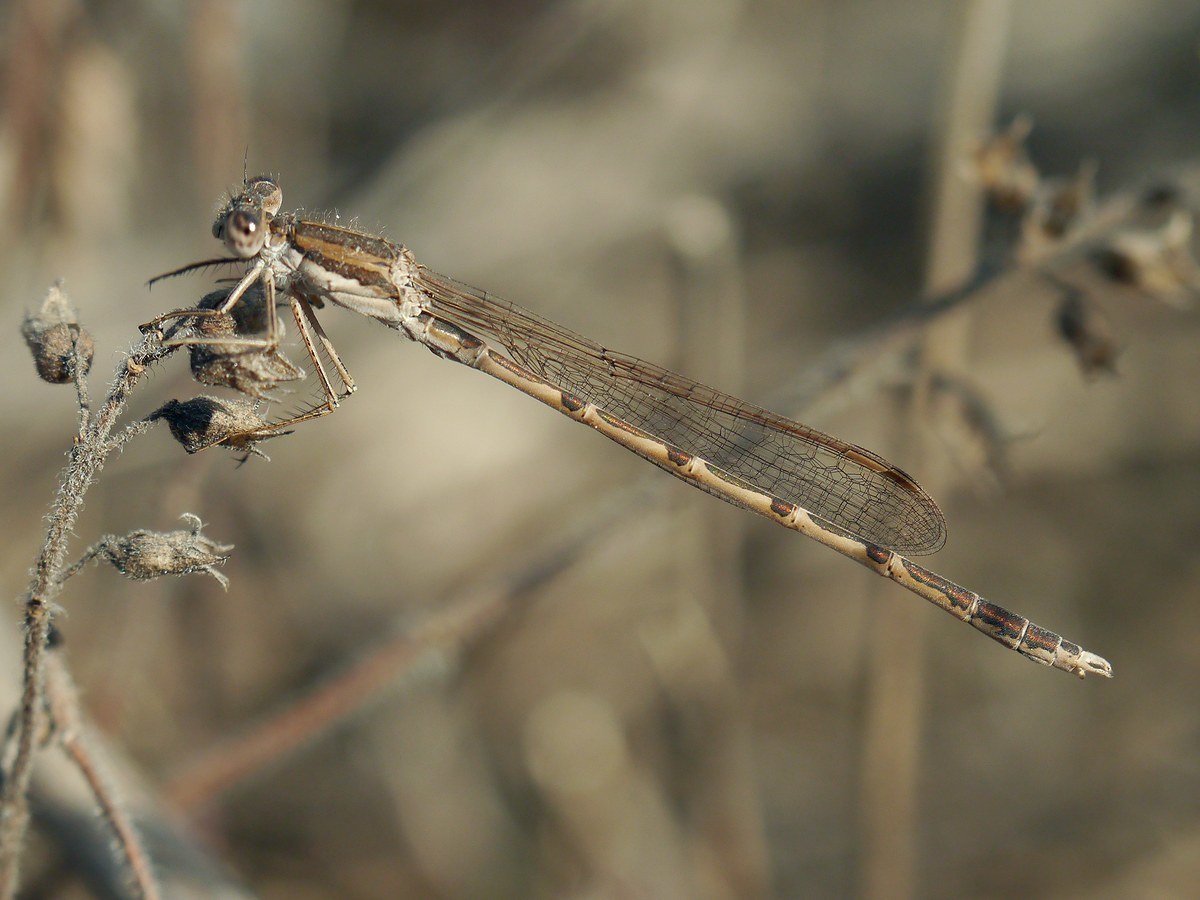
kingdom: Animalia
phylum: Arthropoda
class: Insecta
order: Odonata
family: Lestidae
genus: Sympecma
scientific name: Sympecma fusca
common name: Common winter damsel
